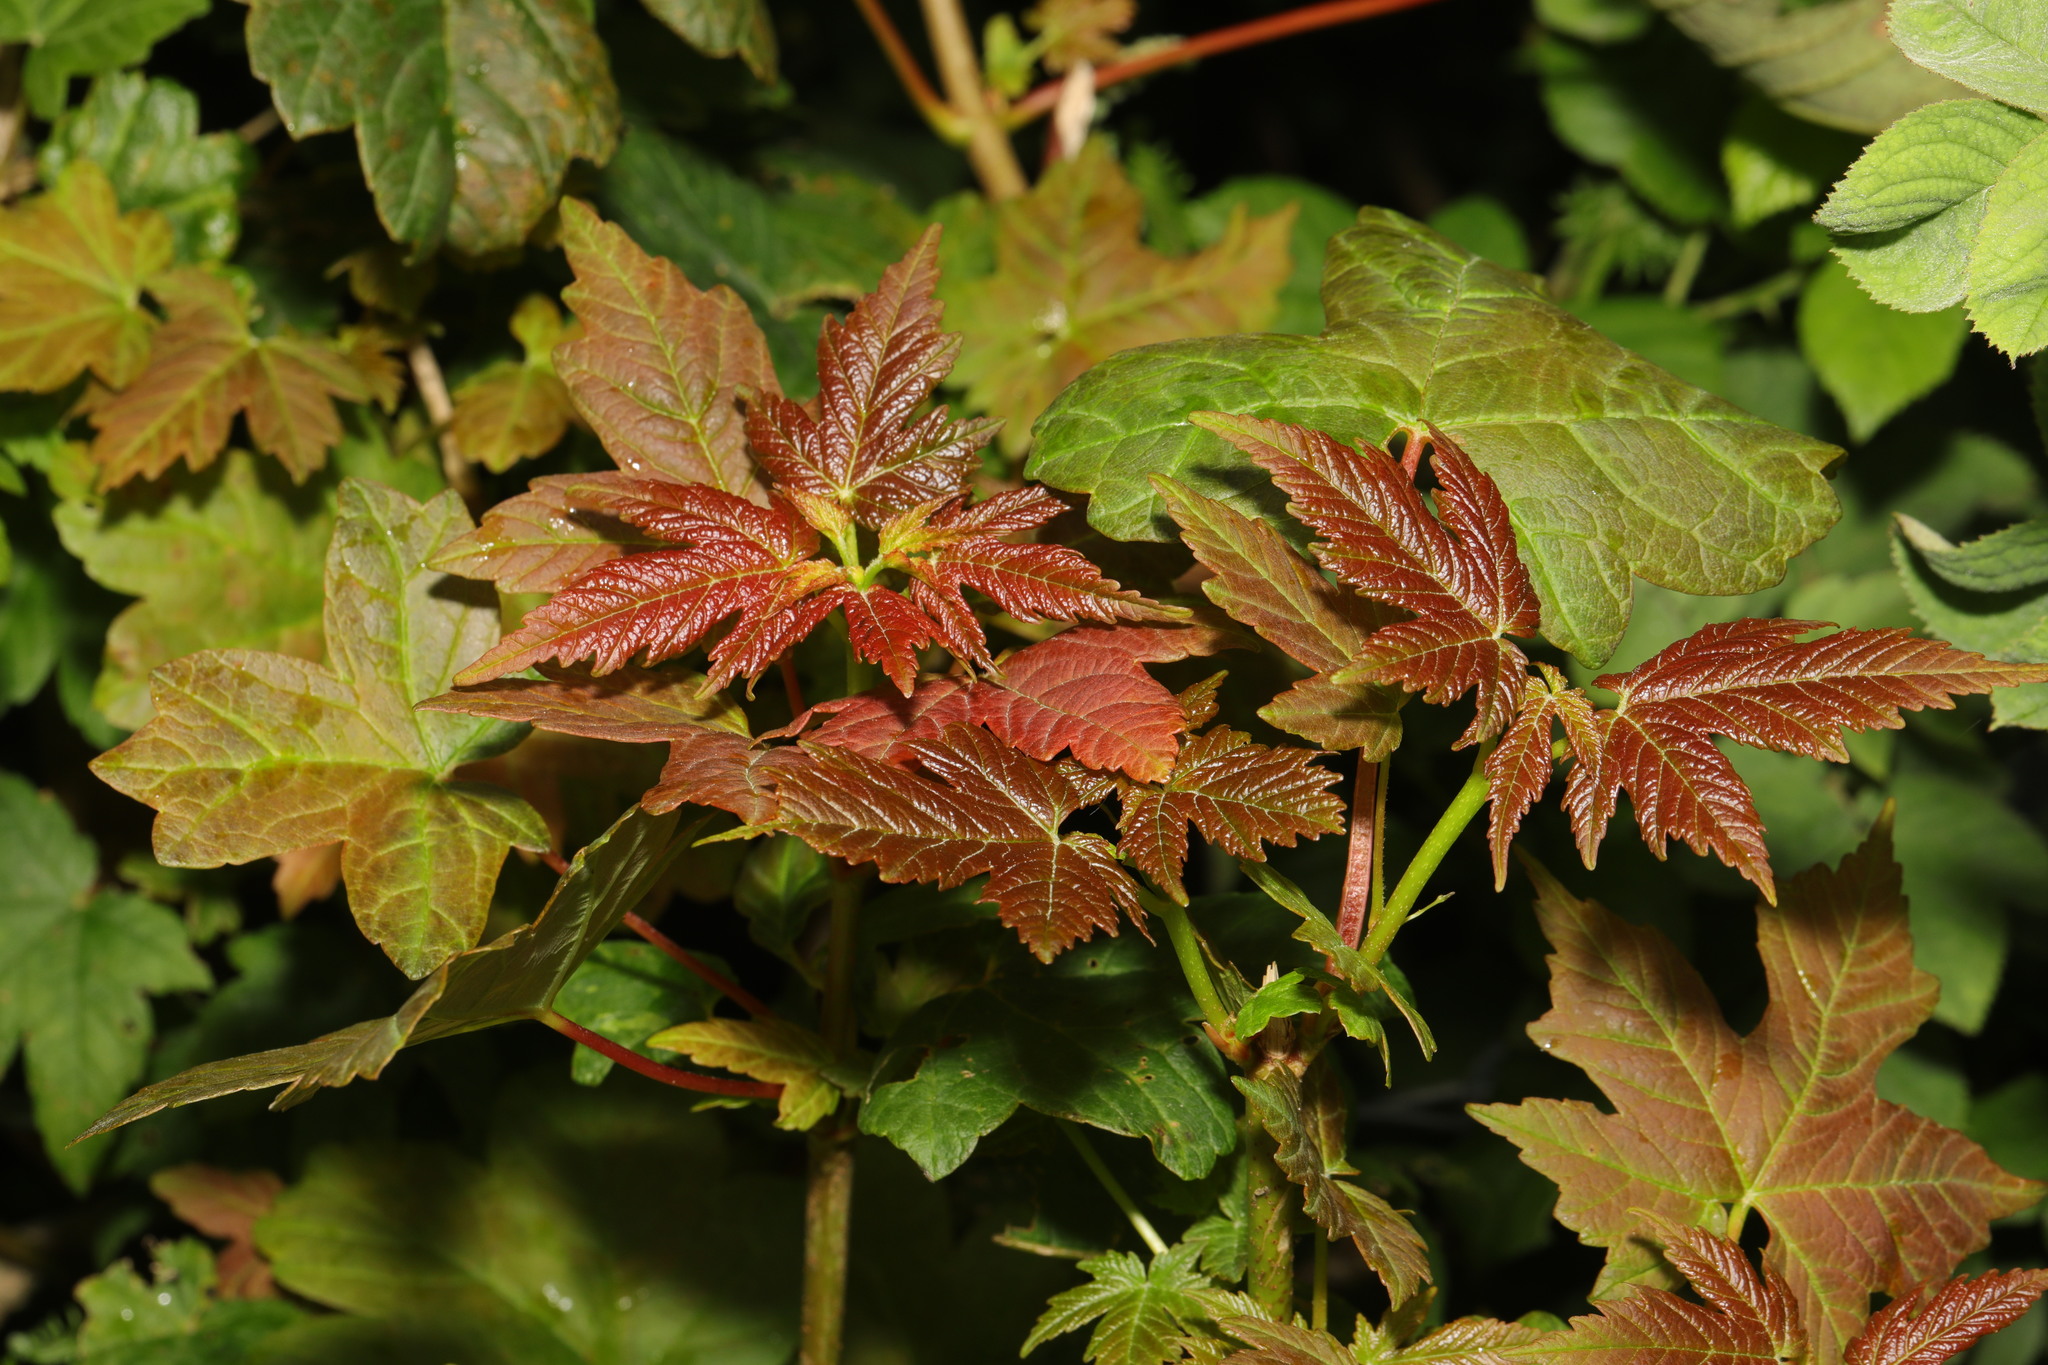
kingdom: Plantae
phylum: Tracheophyta
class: Magnoliopsida
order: Sapindales
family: Sapindaceae
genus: Acer
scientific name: Acer pseudoplatanus
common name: Sycamore
